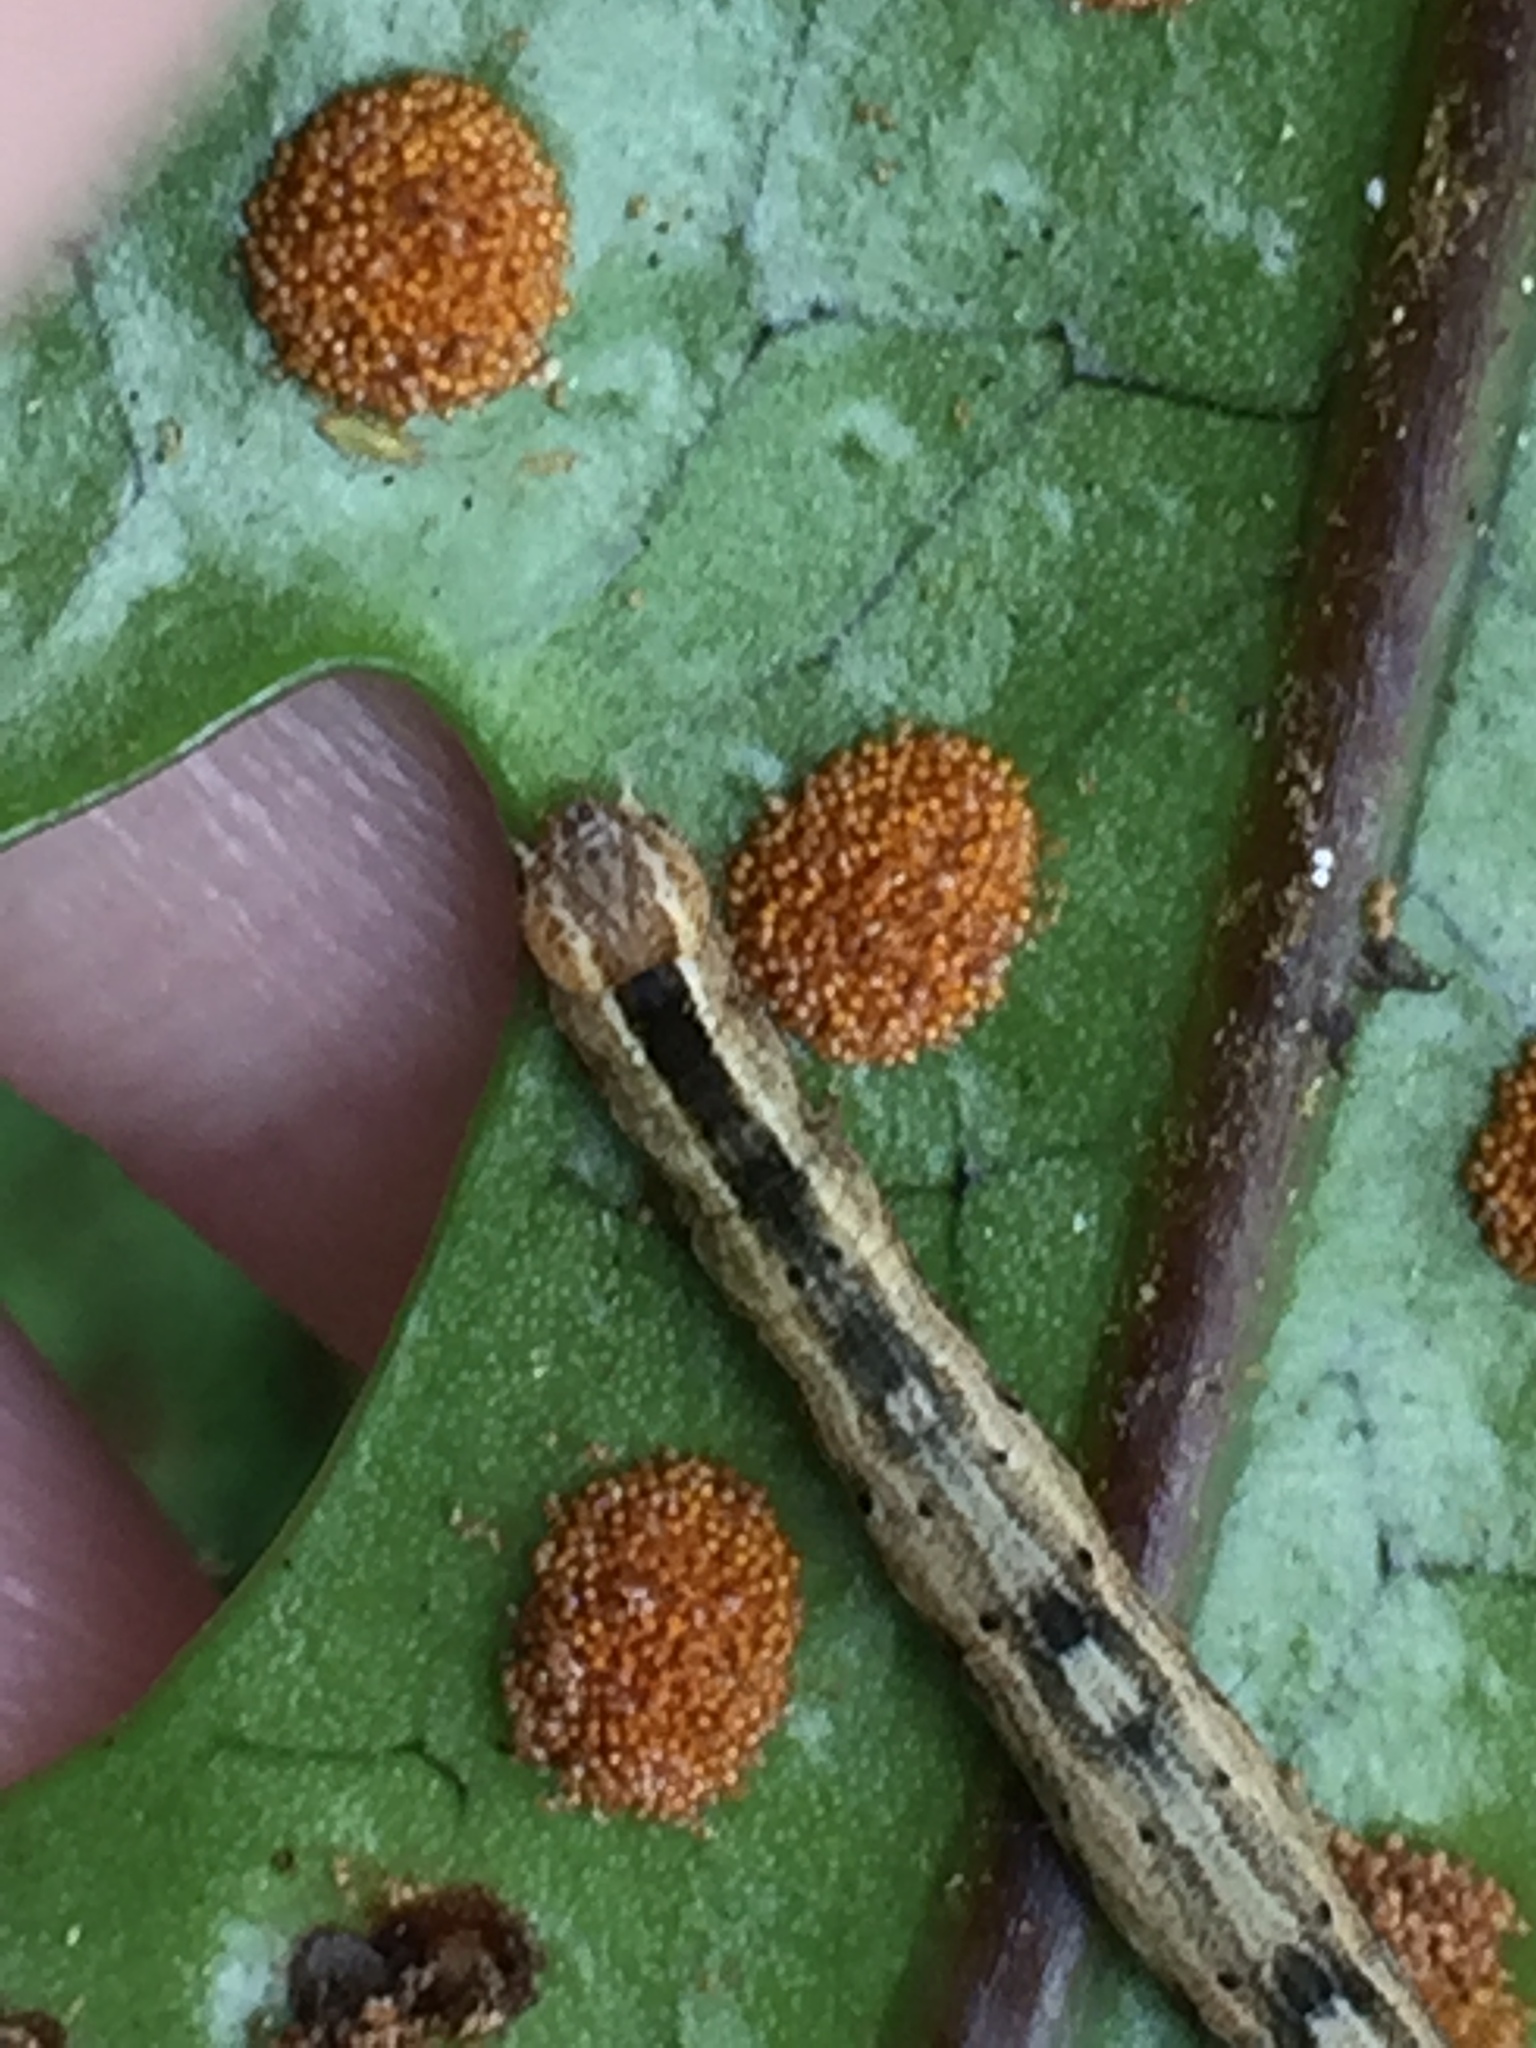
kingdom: Animalia
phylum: Arthropoda
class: Insecta
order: Lepidoptera
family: Geometridae
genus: Sarisa
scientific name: Sarisa muriferata
